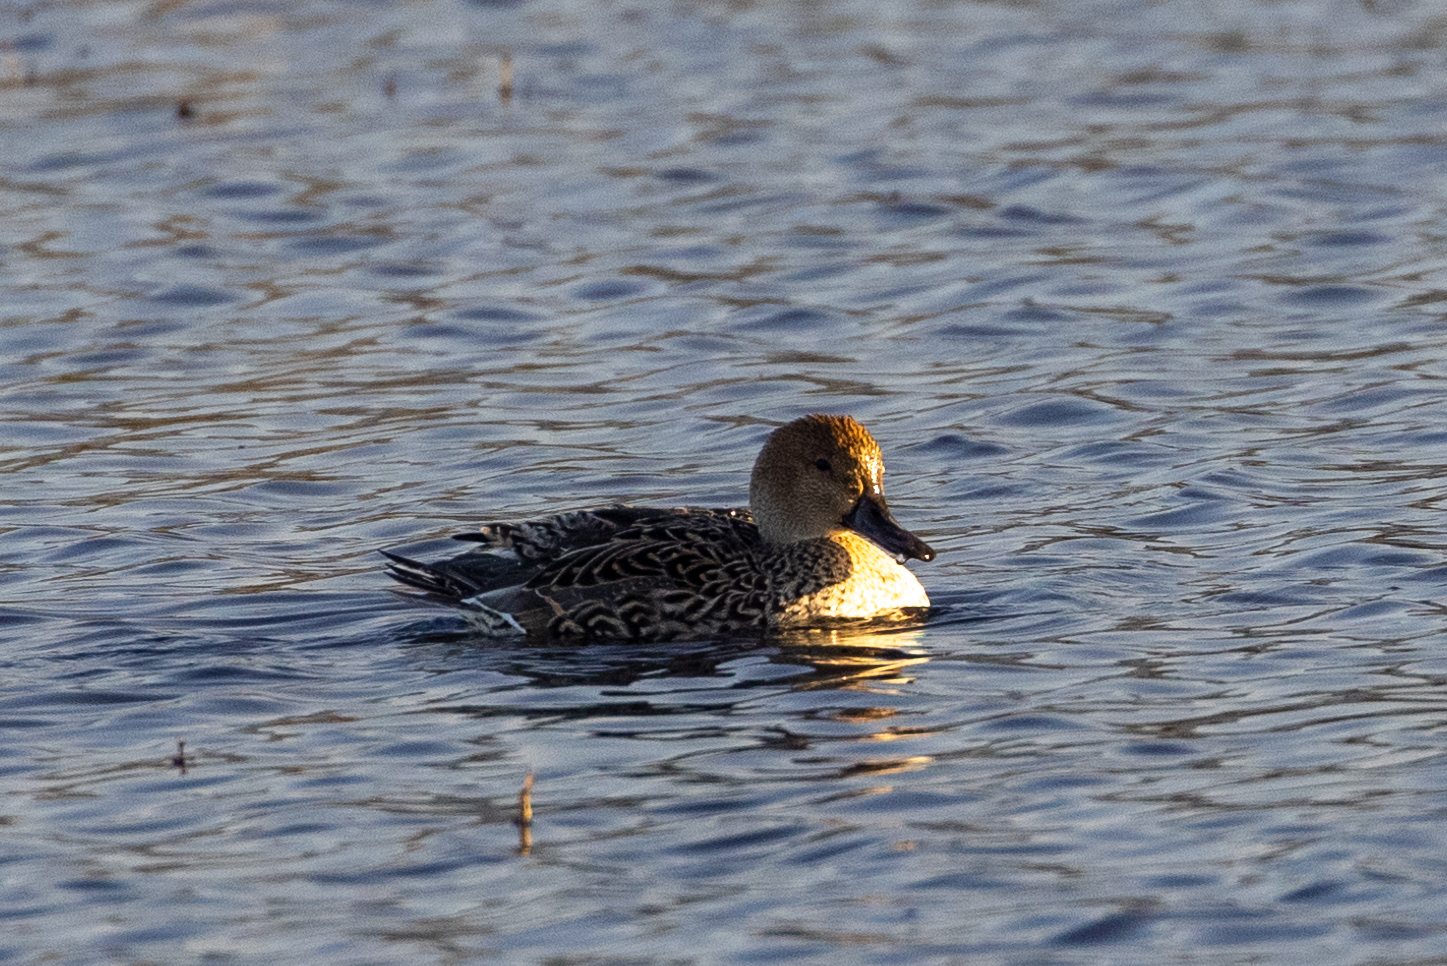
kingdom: Animalia
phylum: Chordata
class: Aves
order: Anseriformes
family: Anatidae
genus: Anas
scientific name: Anas acuta
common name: Northern pintail
